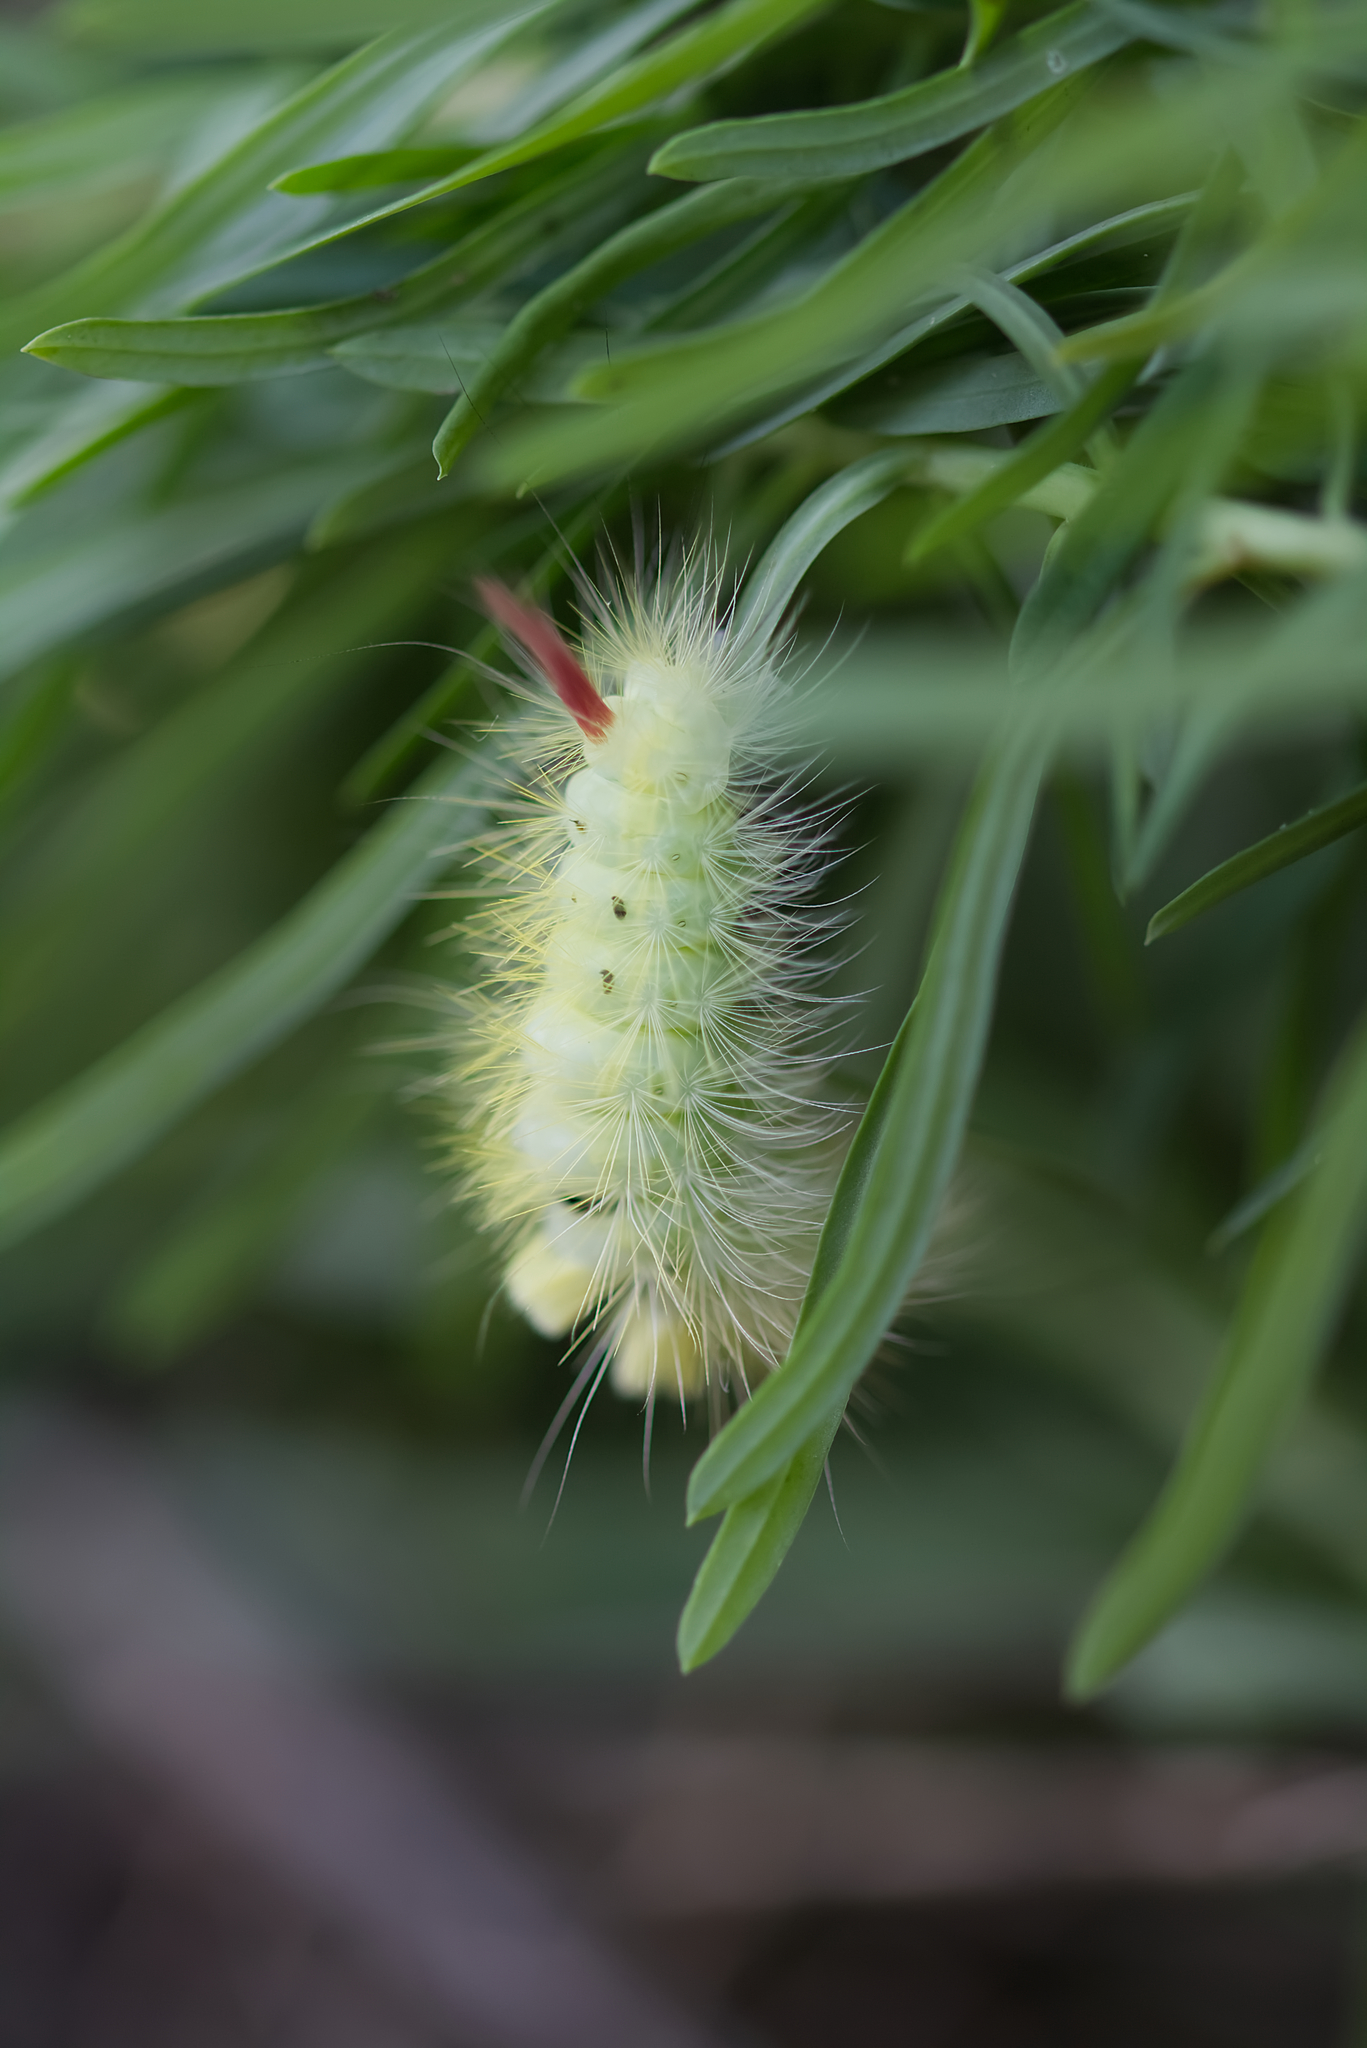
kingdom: Animalia
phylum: Arthropoda
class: Insecta
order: Lepidoptera
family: Erebidae
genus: Calliteara
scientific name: Calliteara pudibunda
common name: Pale tussock
